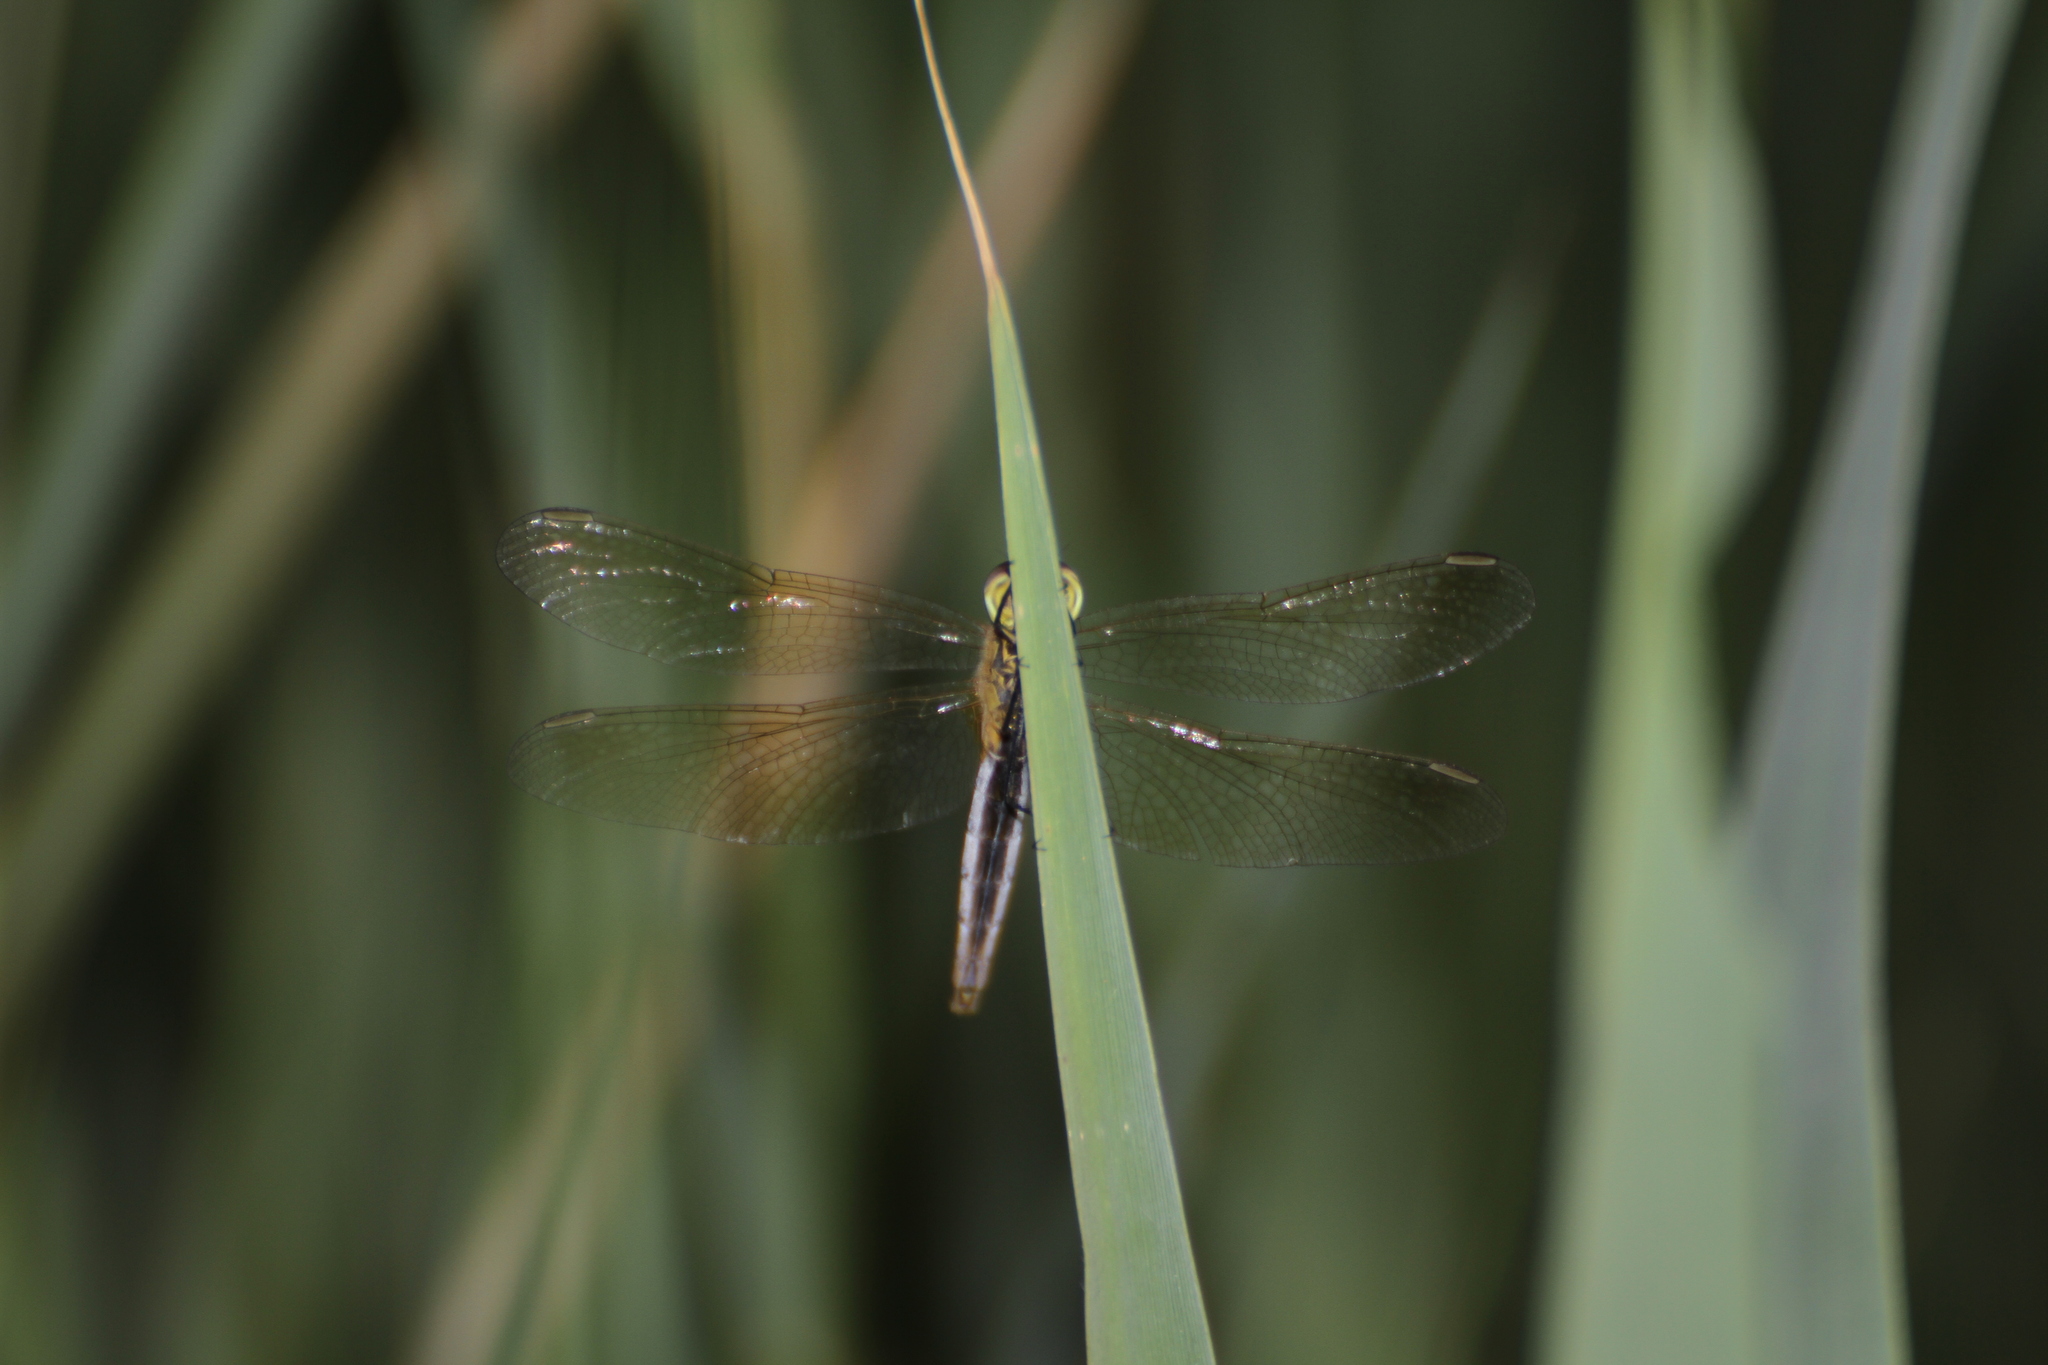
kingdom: Animalia
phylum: Arthropoda
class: Insecta
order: Odonata
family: Libellulidae
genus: Sympetrum
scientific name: Sympetrum depressiusculum
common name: Spotted darter
